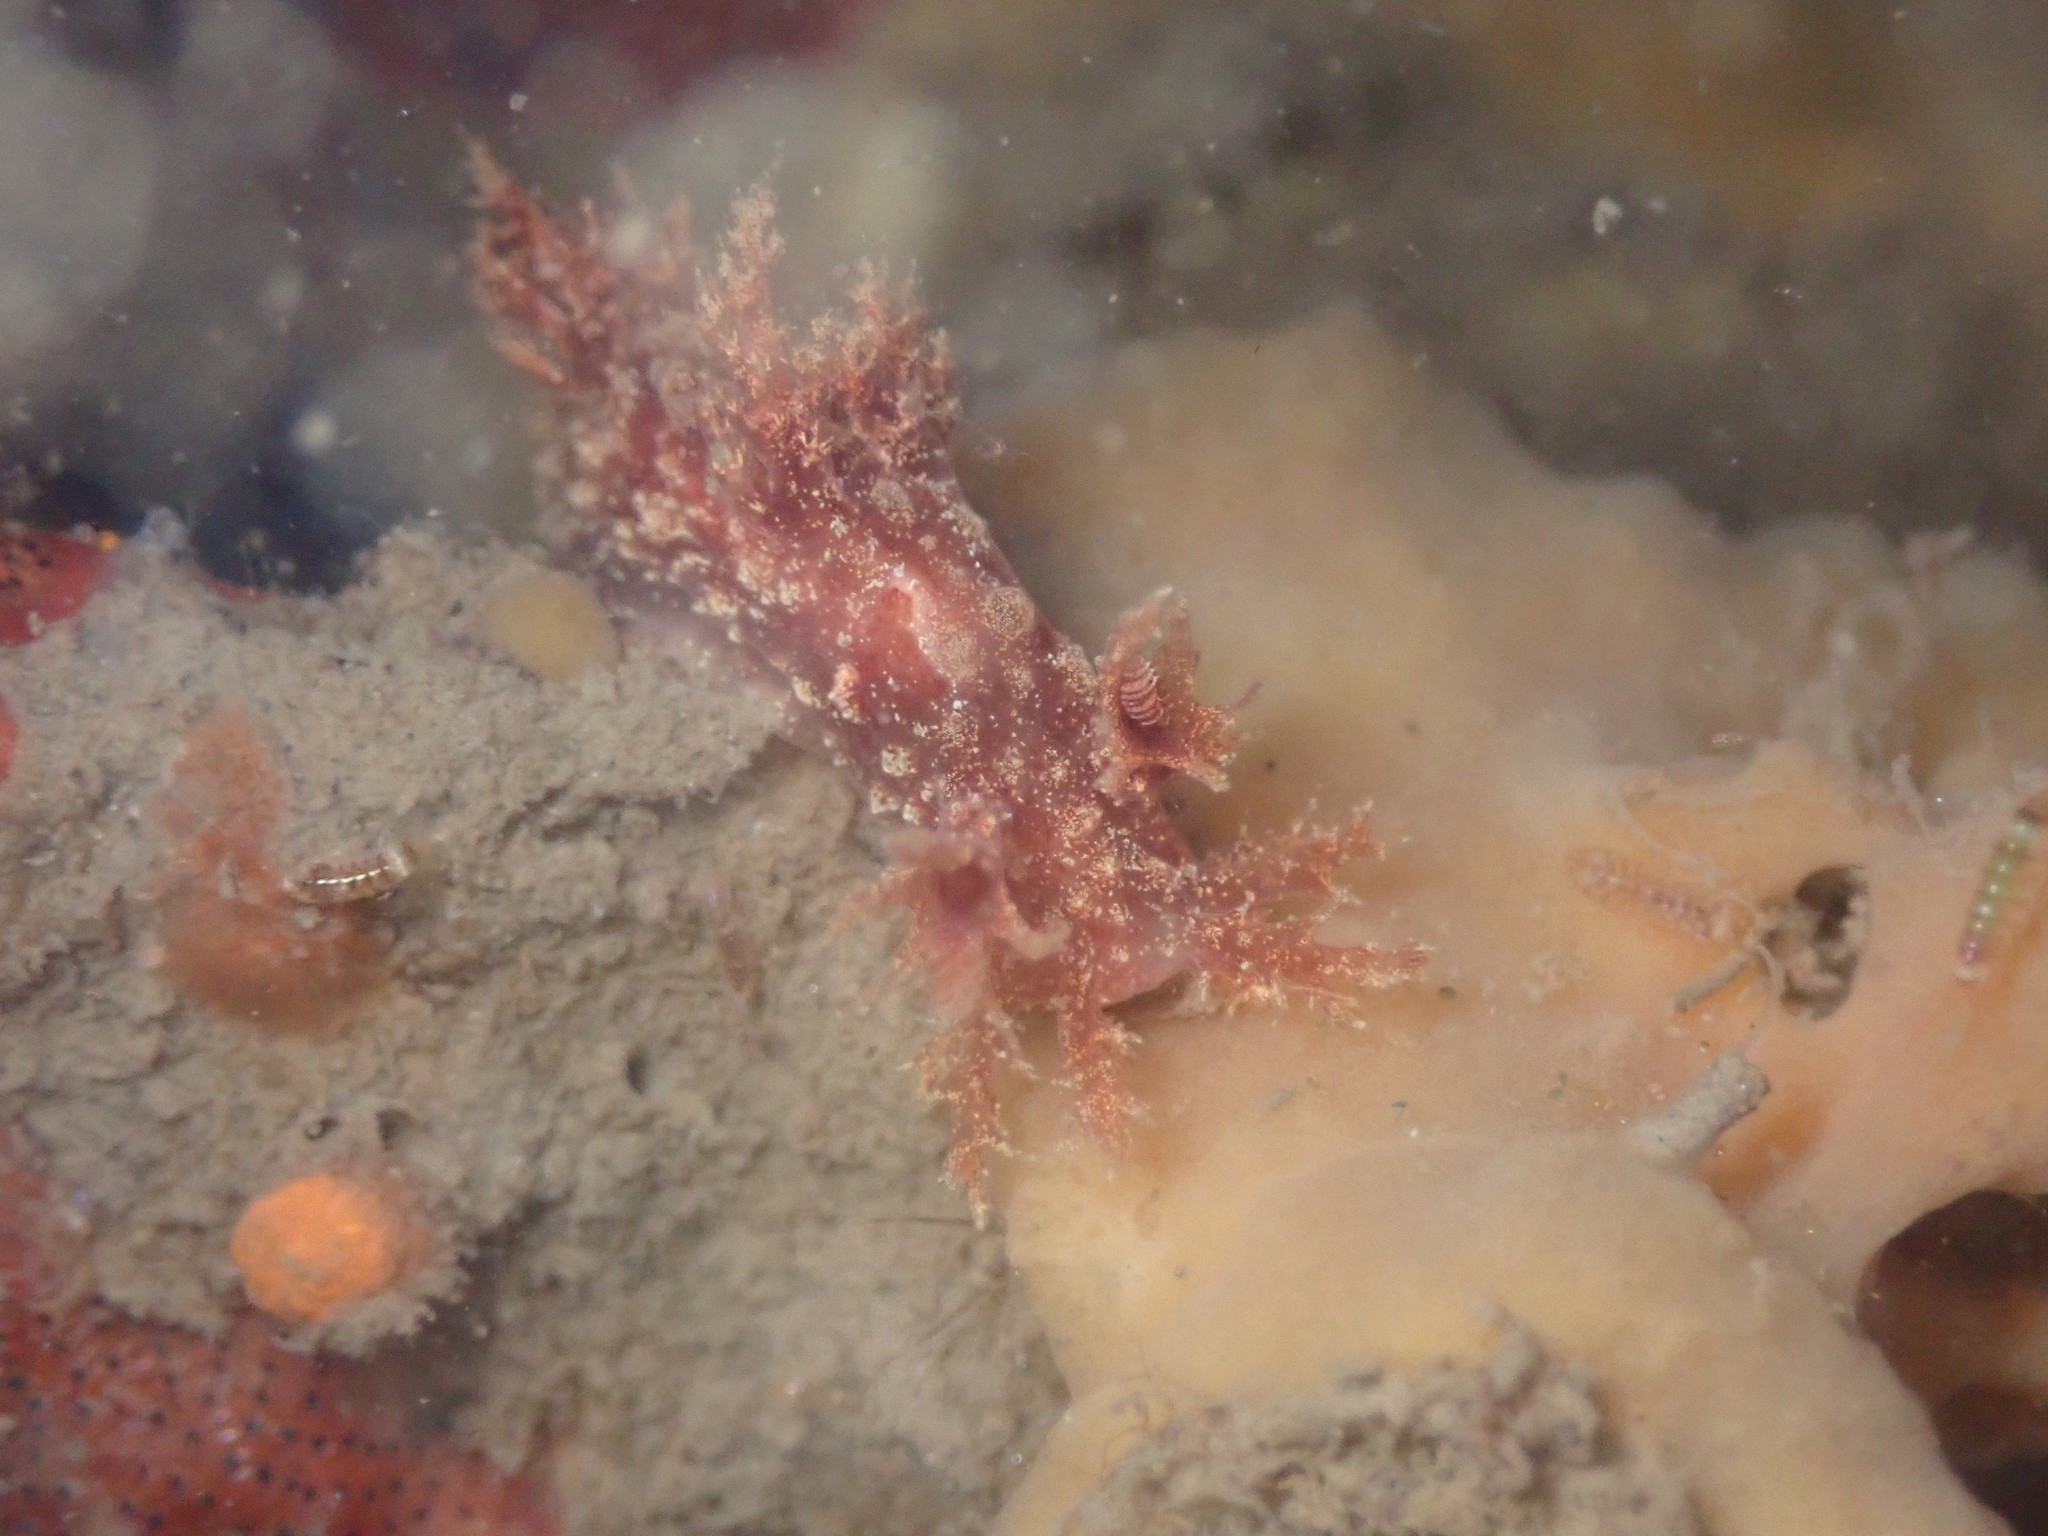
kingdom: Animalia
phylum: Mollusca
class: Gastropoda
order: Nudibranchia
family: Dendronotidae
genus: Dendronotus
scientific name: Dendronotus venustus
